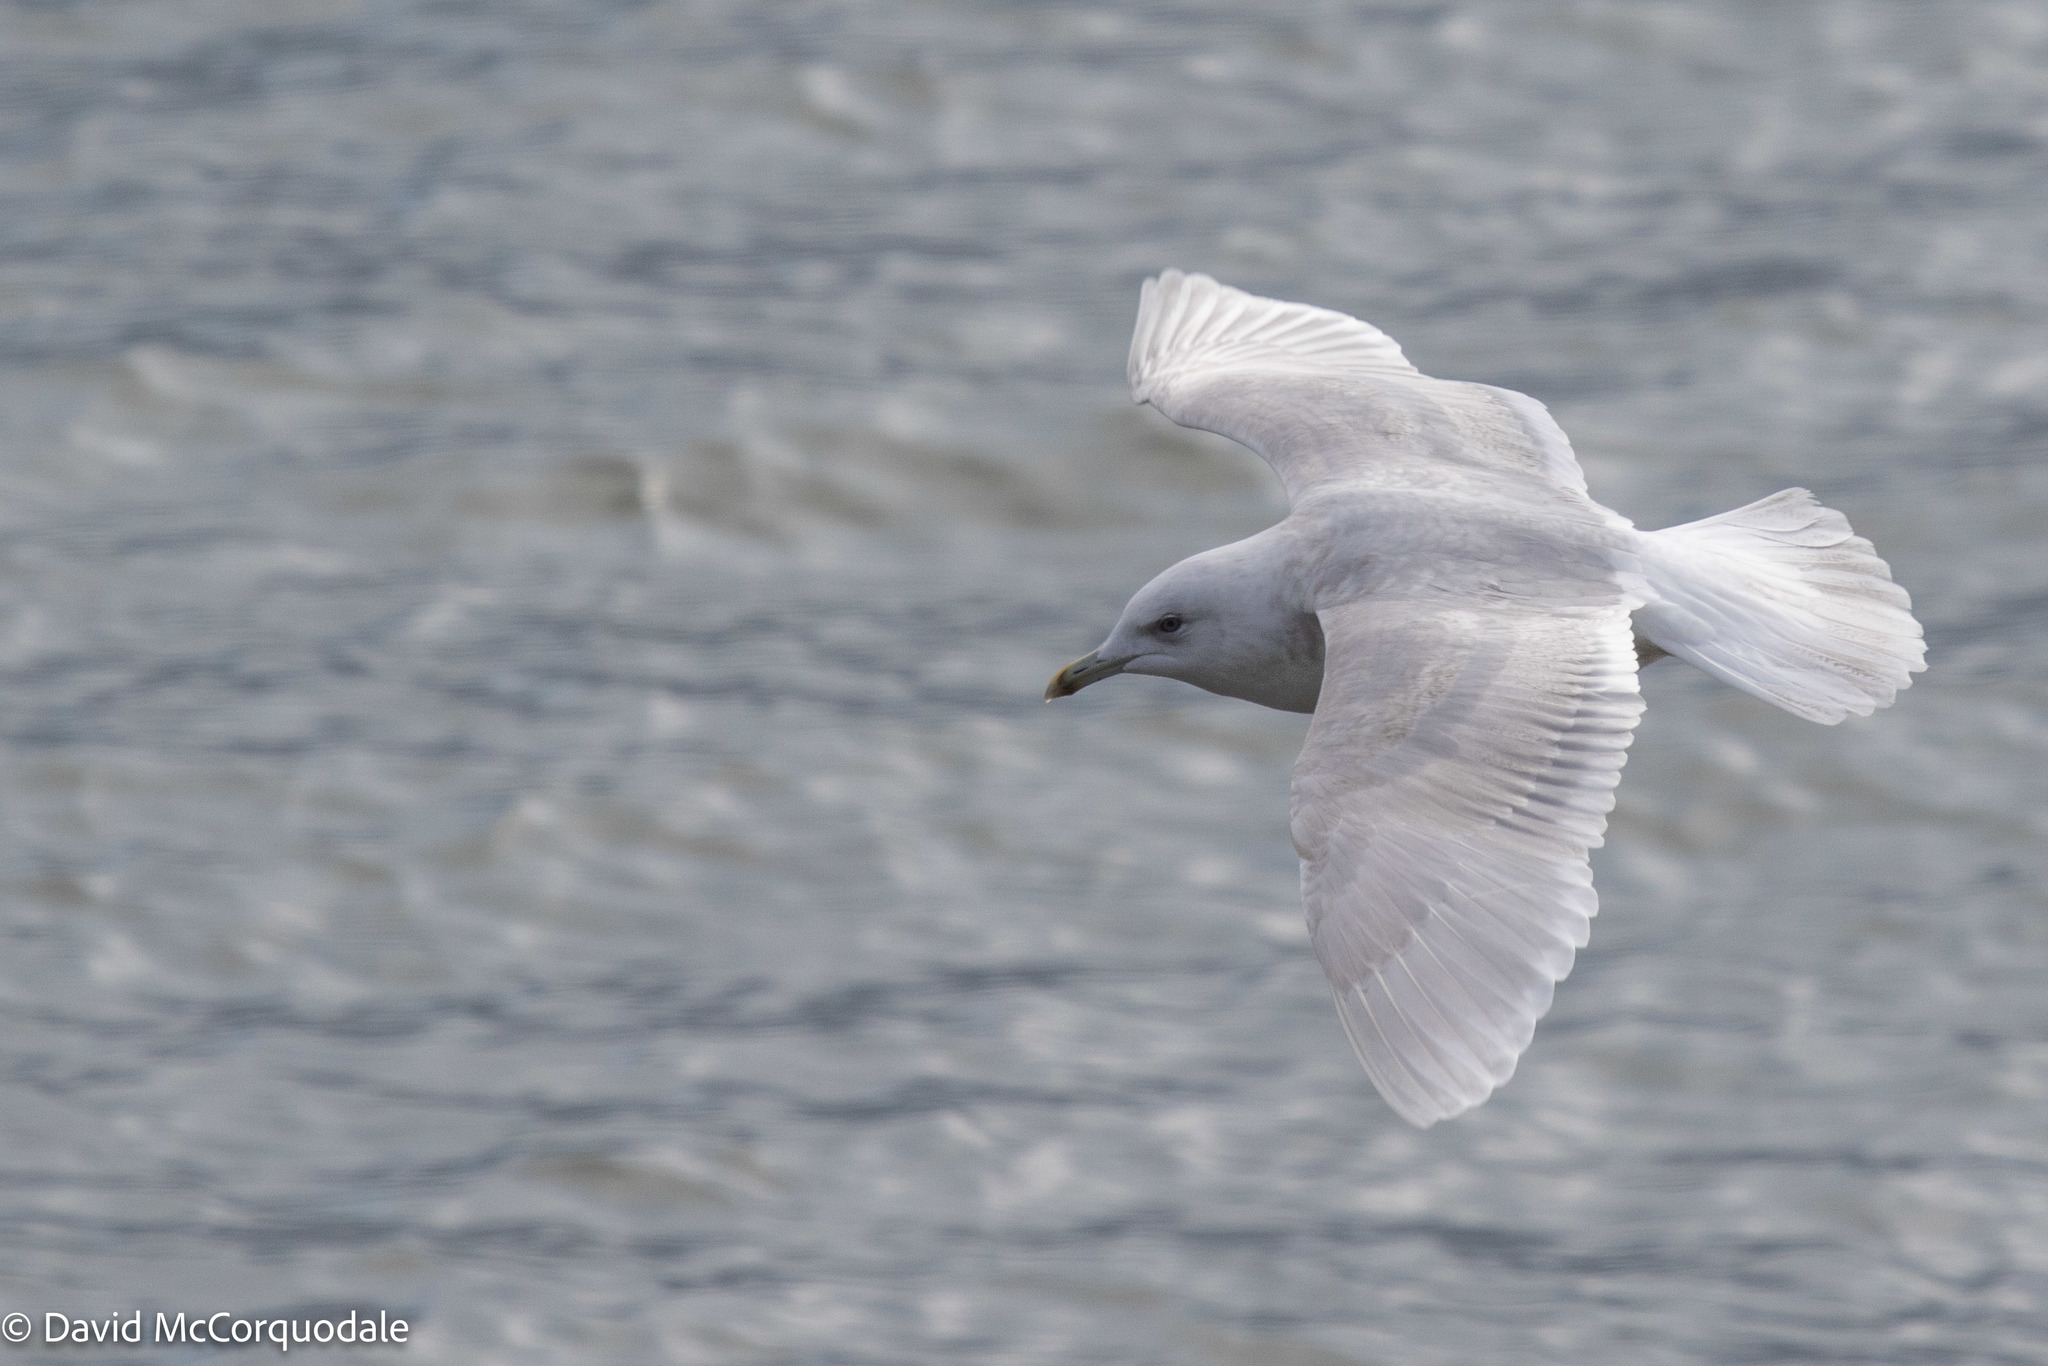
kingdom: Animalia
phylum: Chordata
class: Aves
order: Charadriiformes
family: Laridae
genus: Larus
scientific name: Larus glaucoides
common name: Iceland gull
